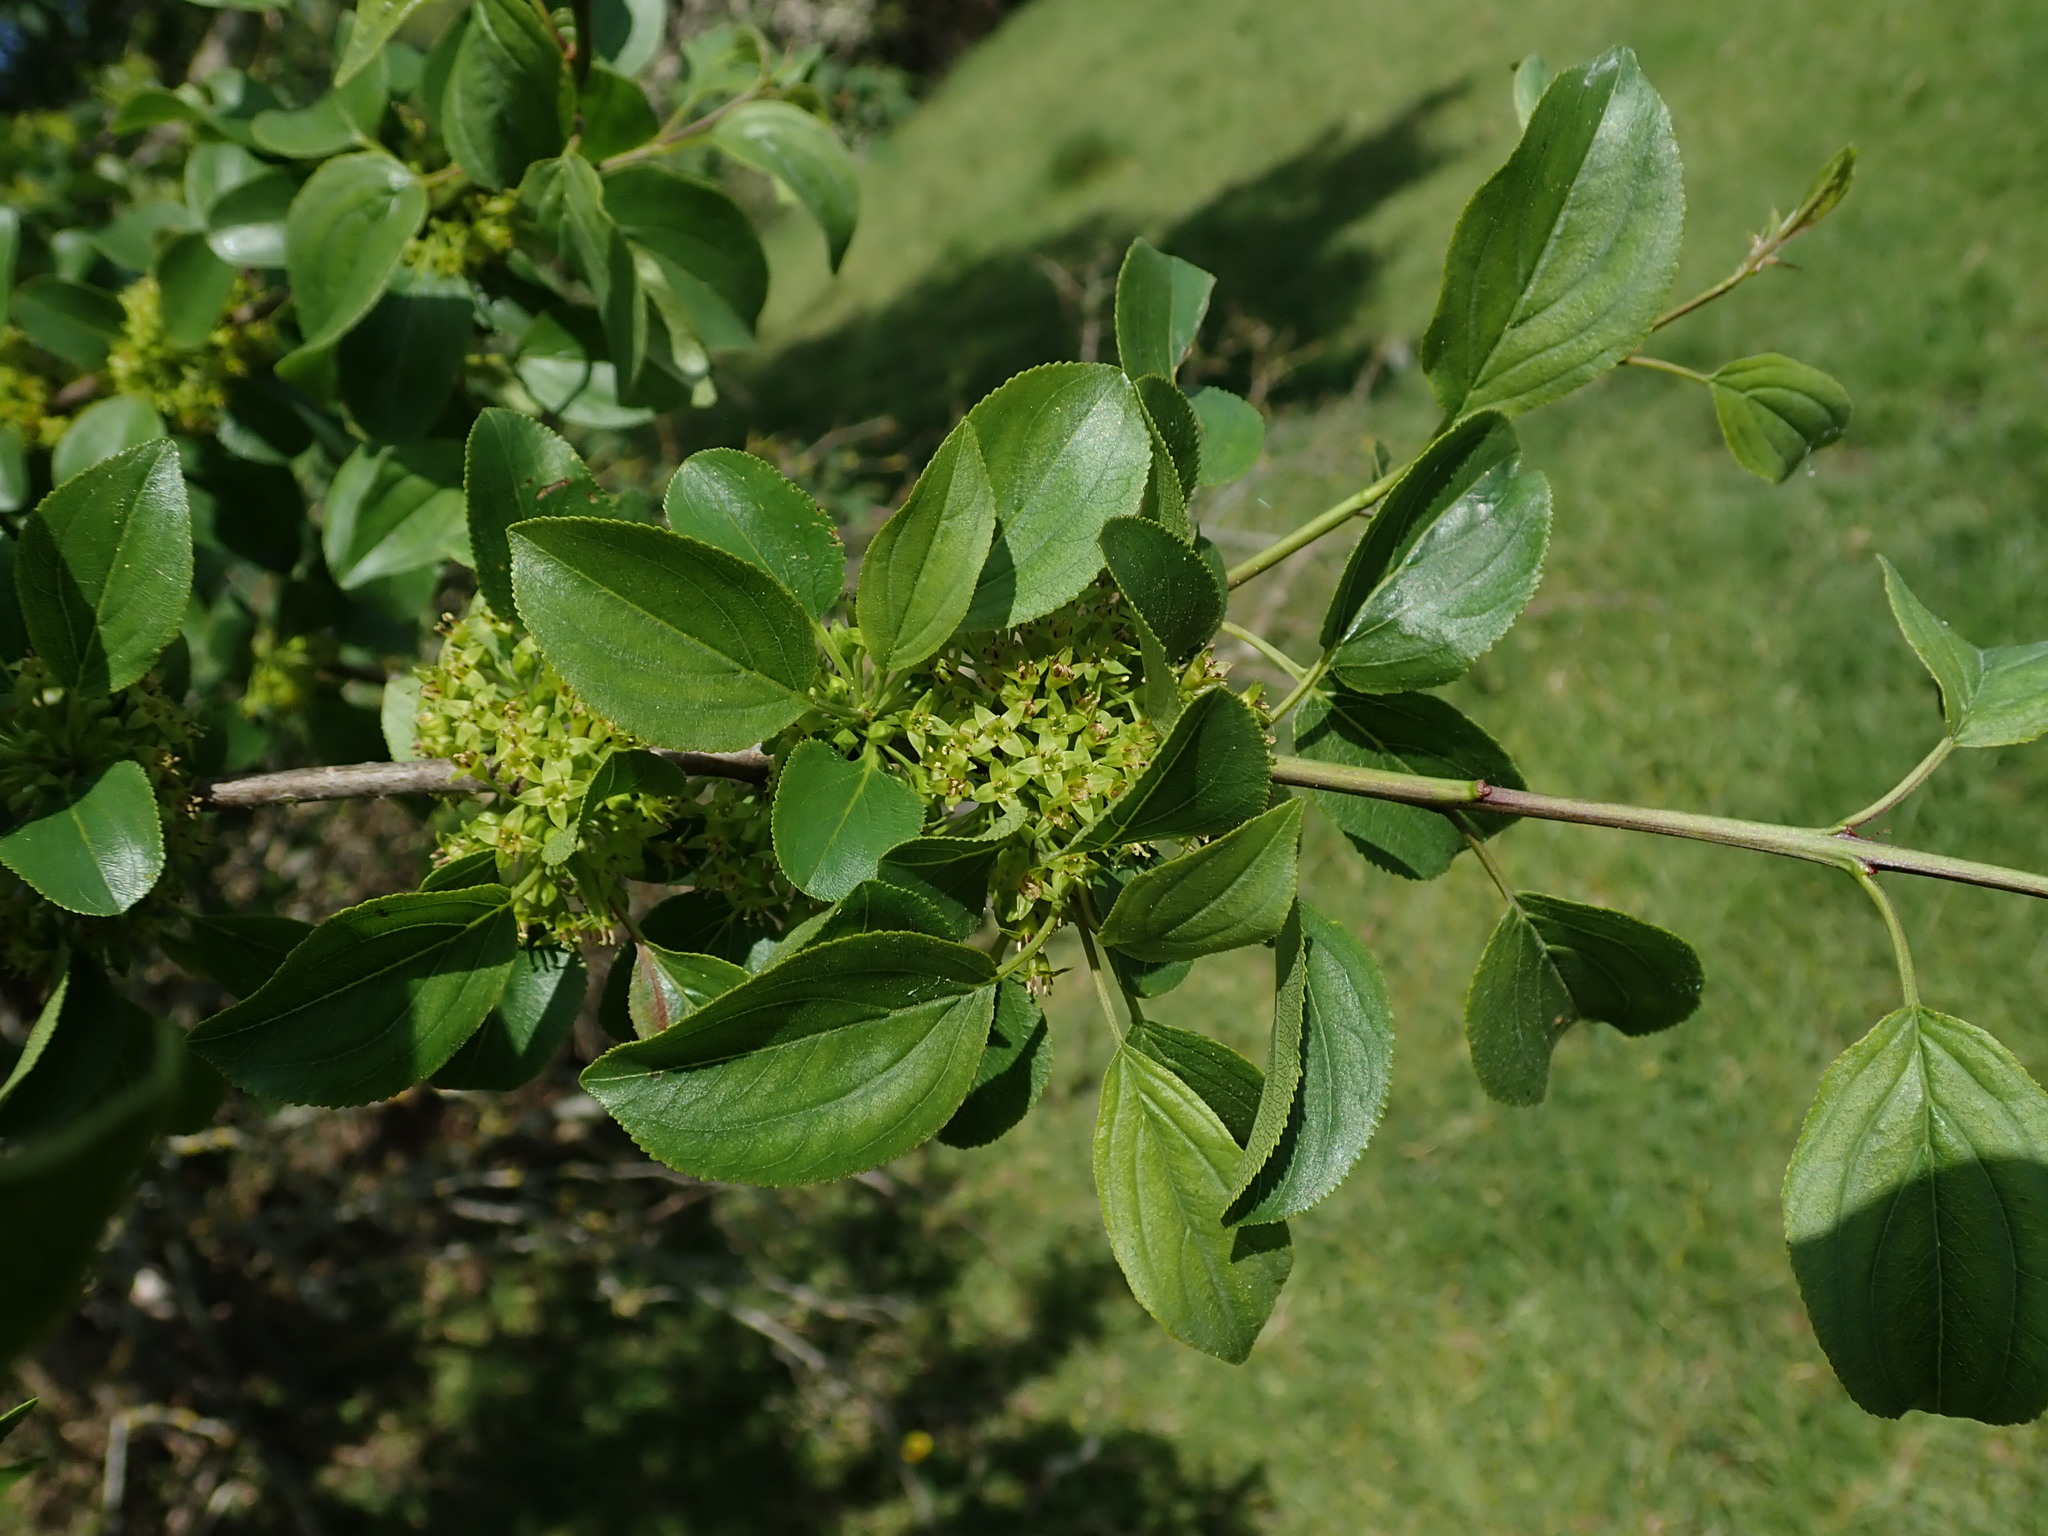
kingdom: Plantae
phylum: Tracheophyta
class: Magnoliopsida
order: Rosales
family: Rhamnaceae
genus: Rhamnus
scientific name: Rhamnus cathartica
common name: Common buckthorn
